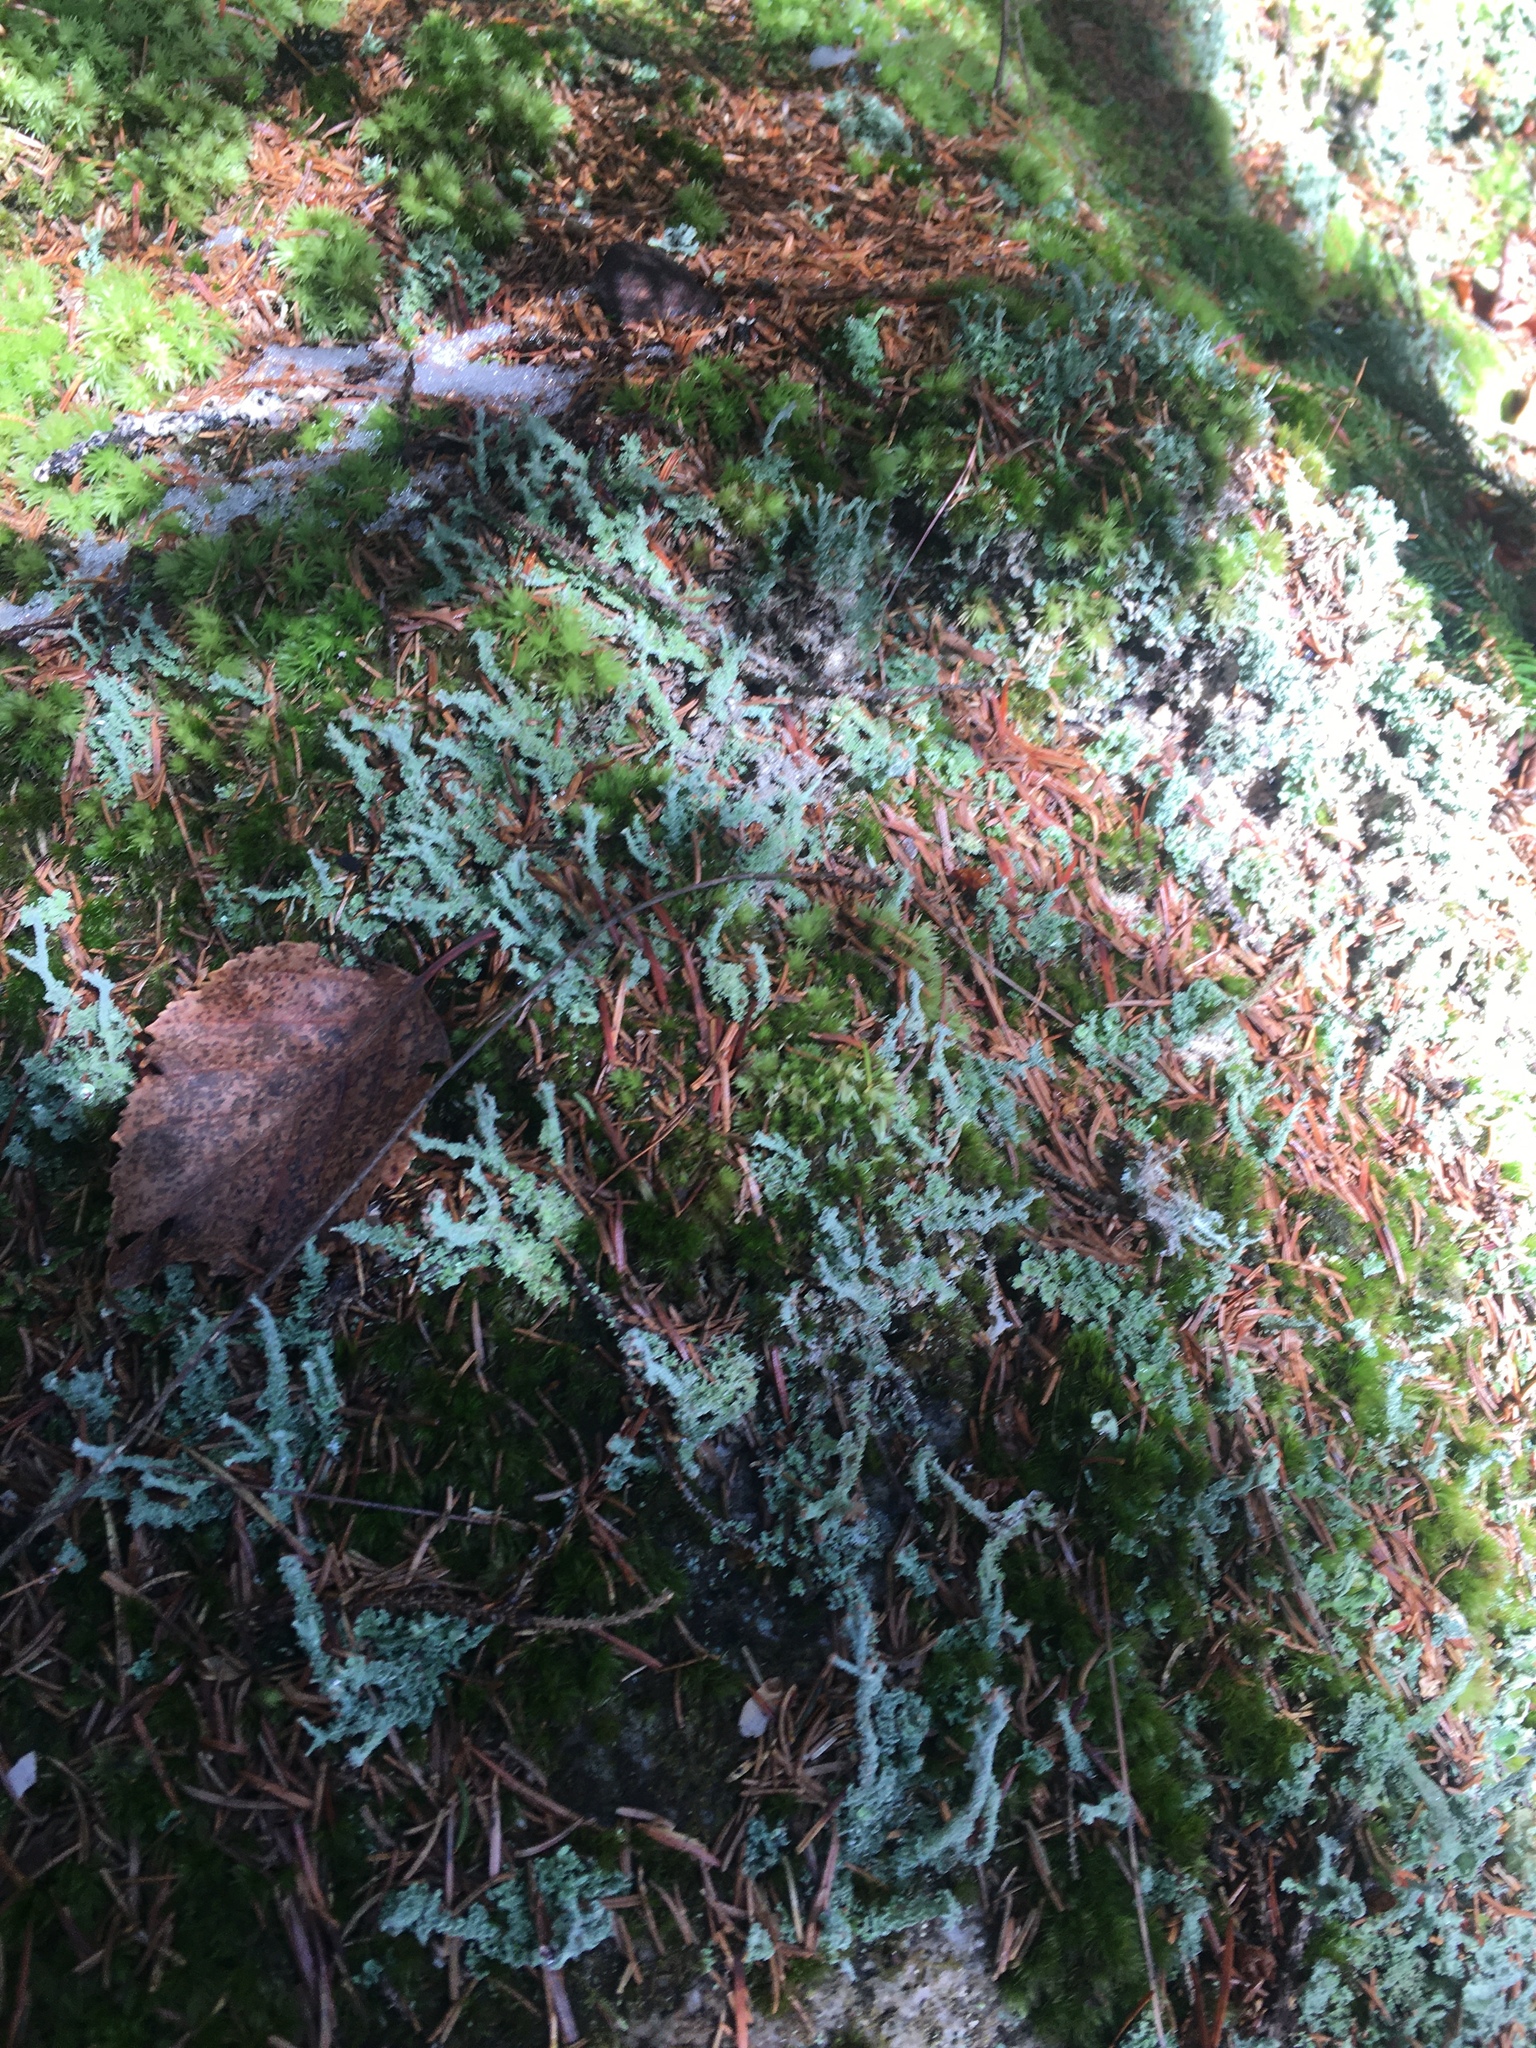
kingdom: Fungi
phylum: Ascomycota
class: Lecanoromycetes
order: Lecanorales
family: Cladoniaceae
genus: Cladonia
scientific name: Cladonia squamosa
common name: Dragon horn
